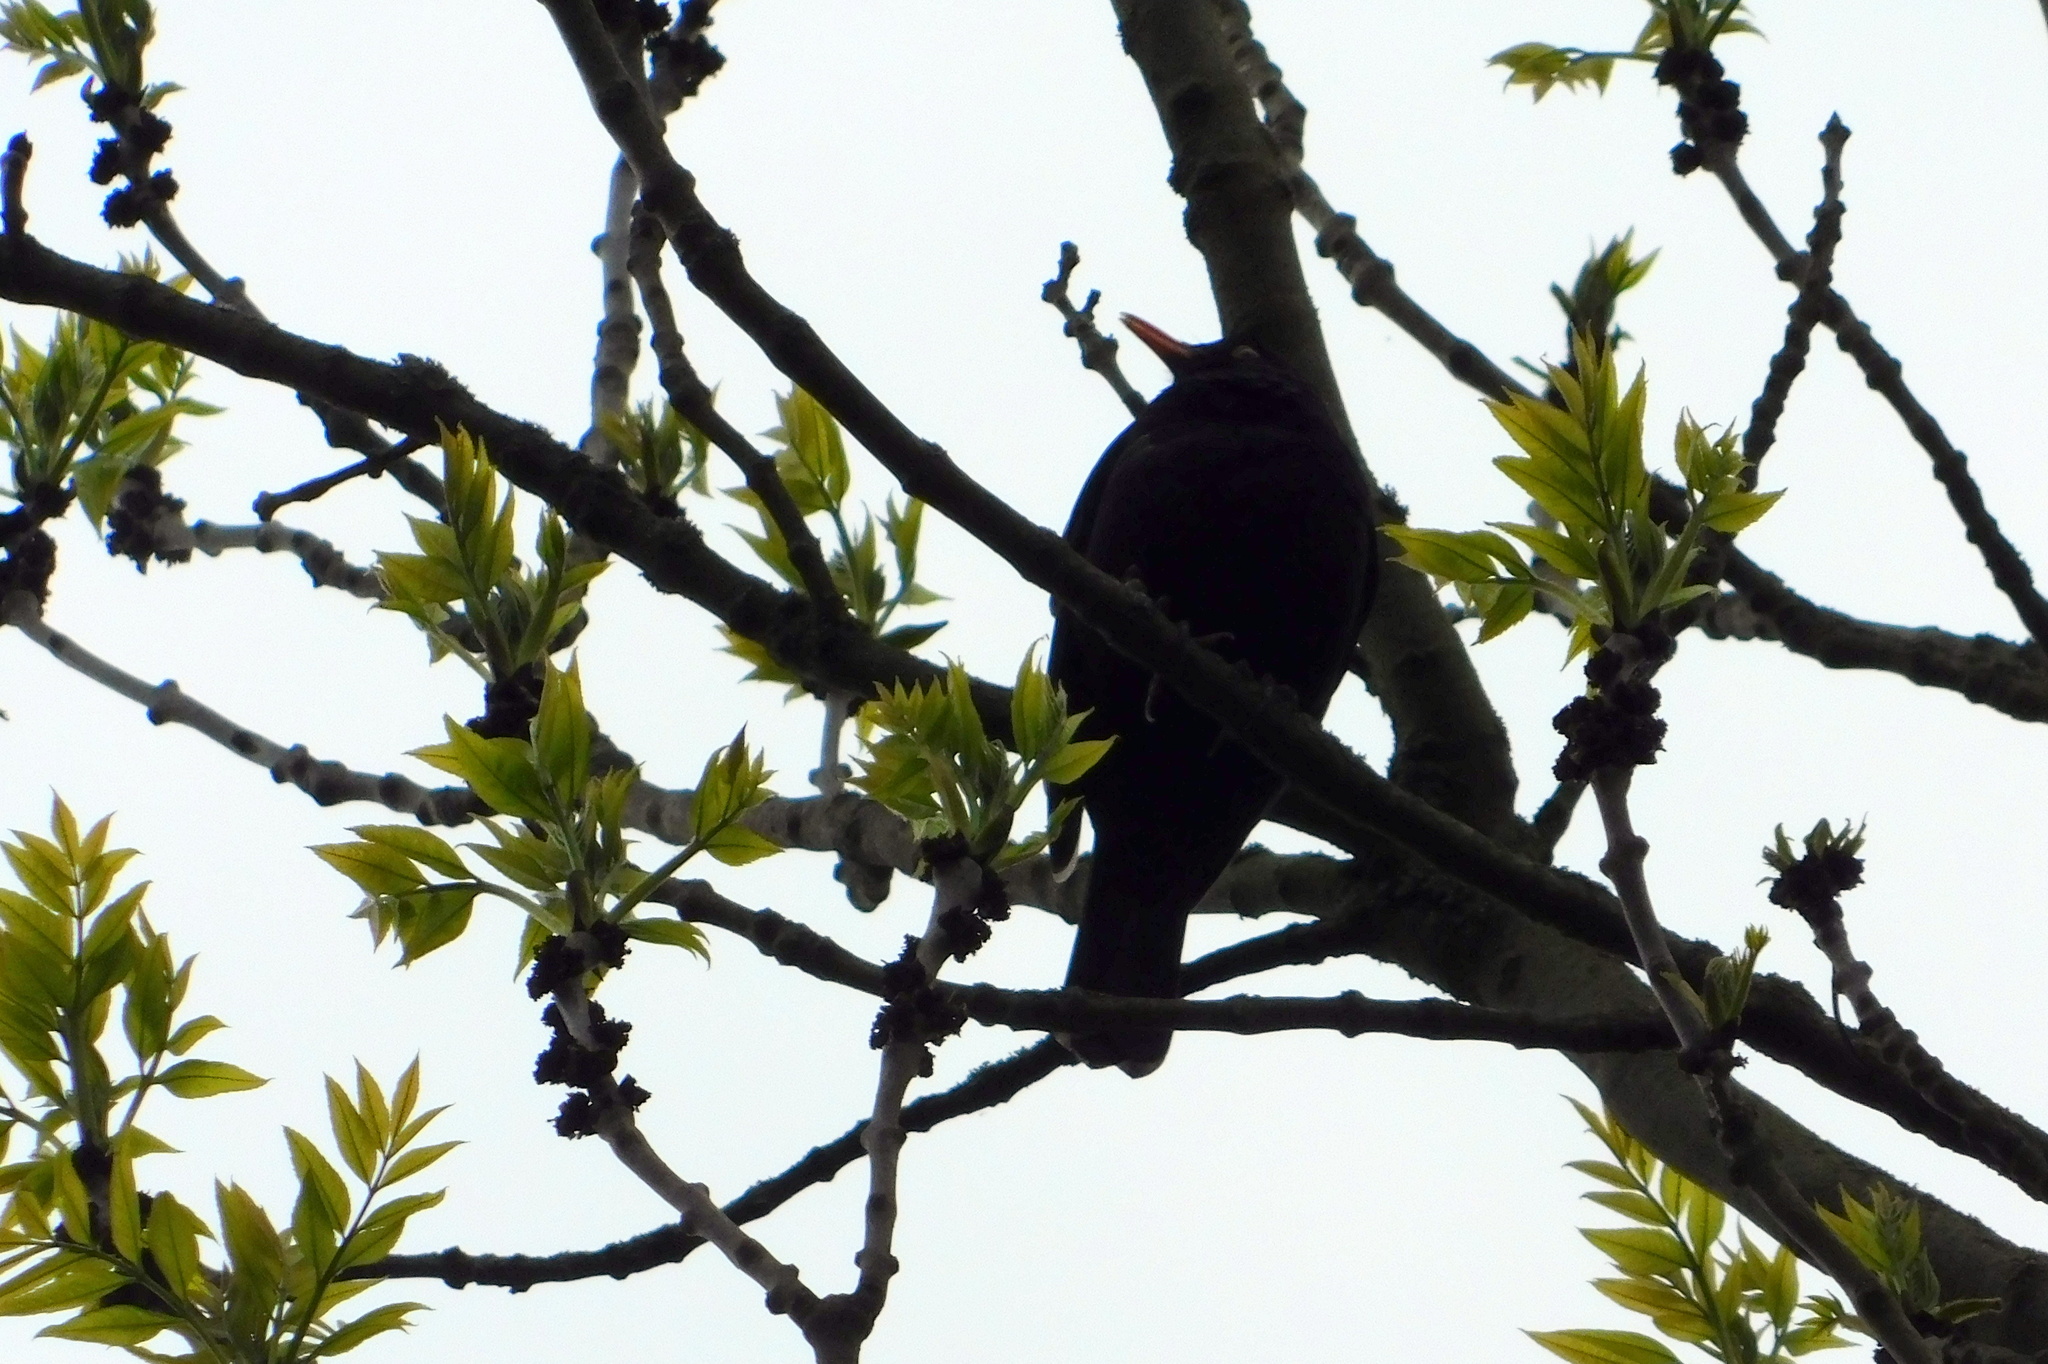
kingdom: Animalia
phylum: Chordata
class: Aves
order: Passeriformes
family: Turdidae
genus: Turdus
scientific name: Turdus merula
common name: Common blackbird
